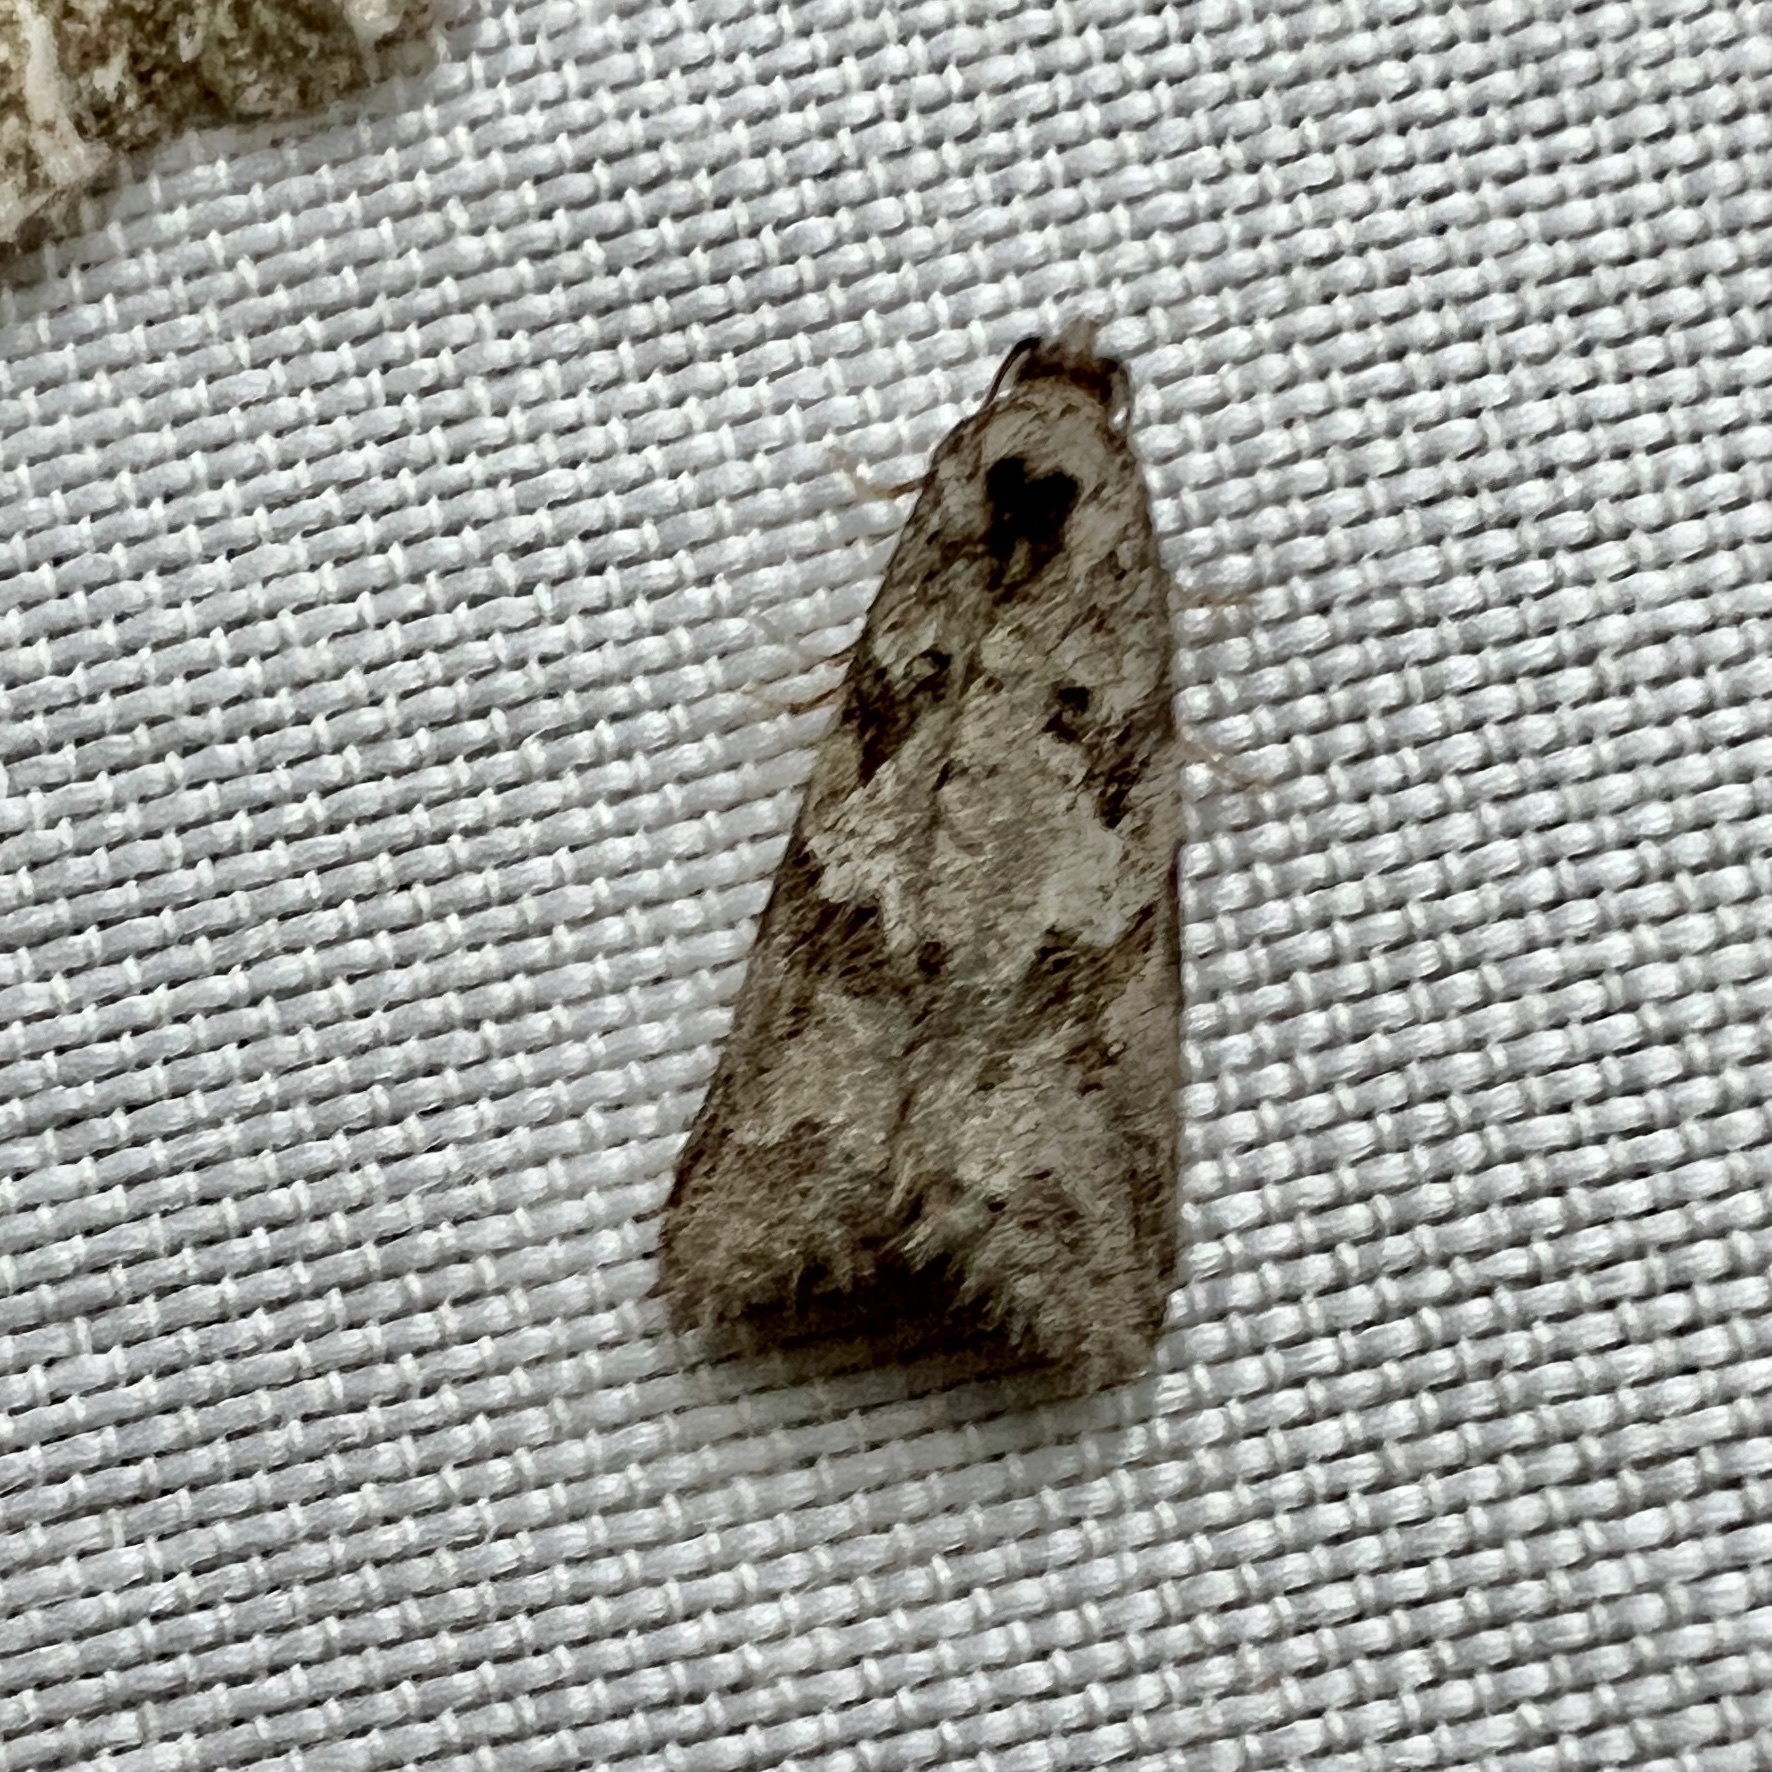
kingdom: Animalia
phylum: Arthropoda
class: Insecta
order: Lepidoptera
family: Tortricidae
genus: Cnephasia
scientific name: Cnephasia stephensiana
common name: Grey tortrix
